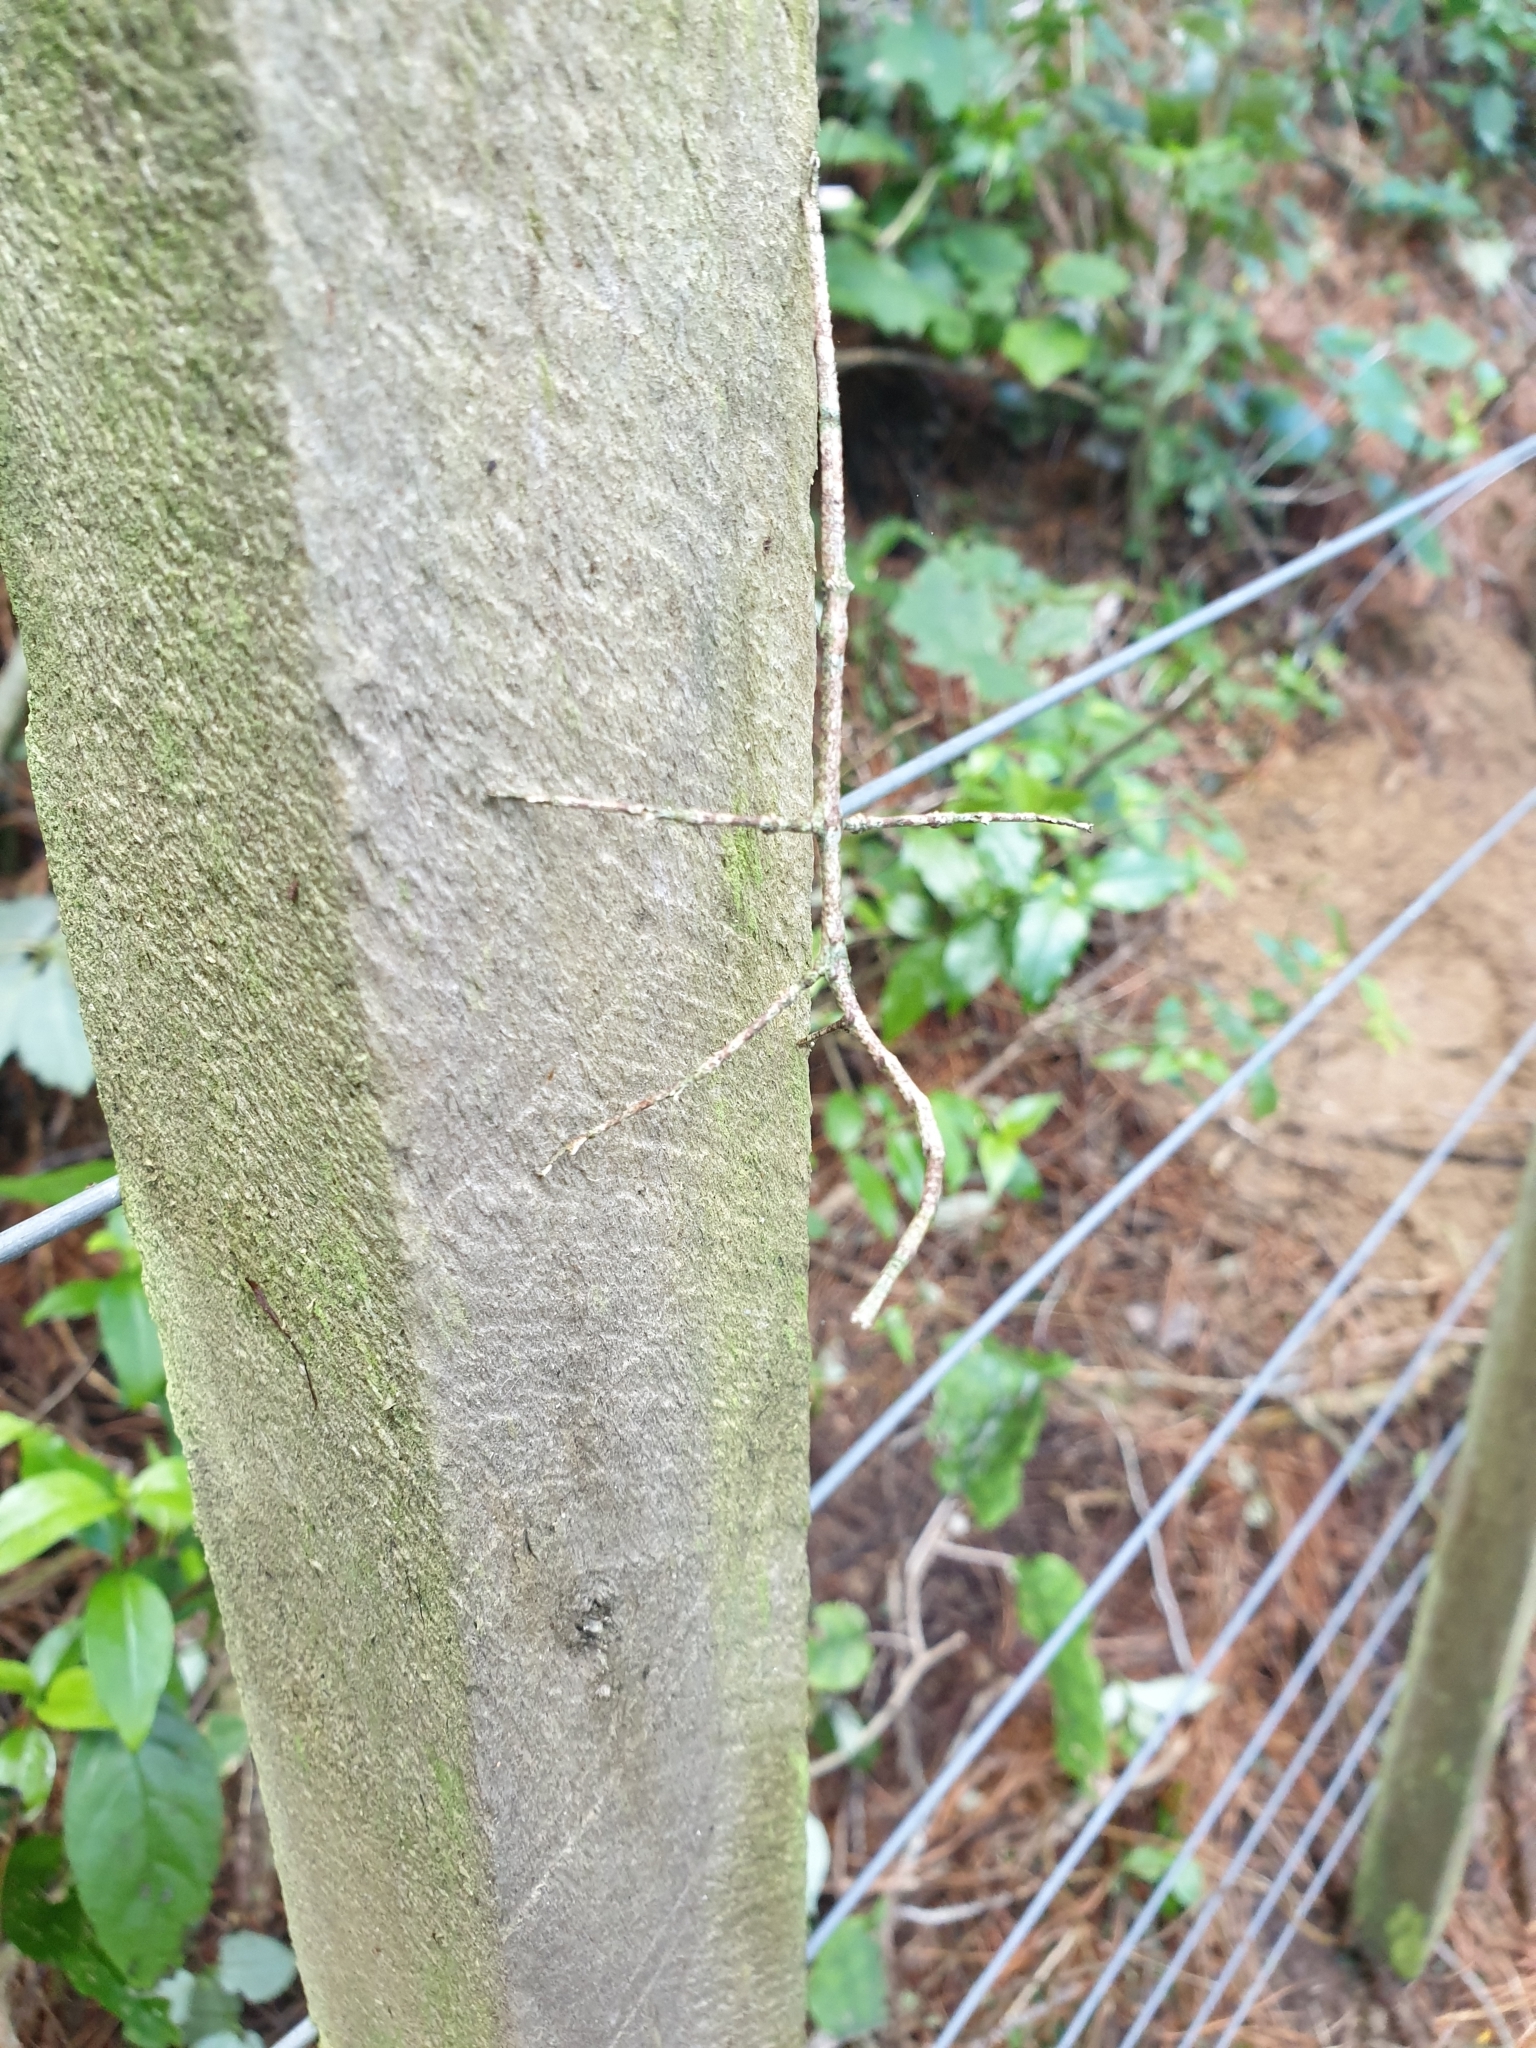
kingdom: Animalia
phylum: Arthropoda
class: Insecta
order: Phasmida
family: Phasmatidae
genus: Argosarchus
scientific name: Argosarchus horridus
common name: Bristly stick insect
